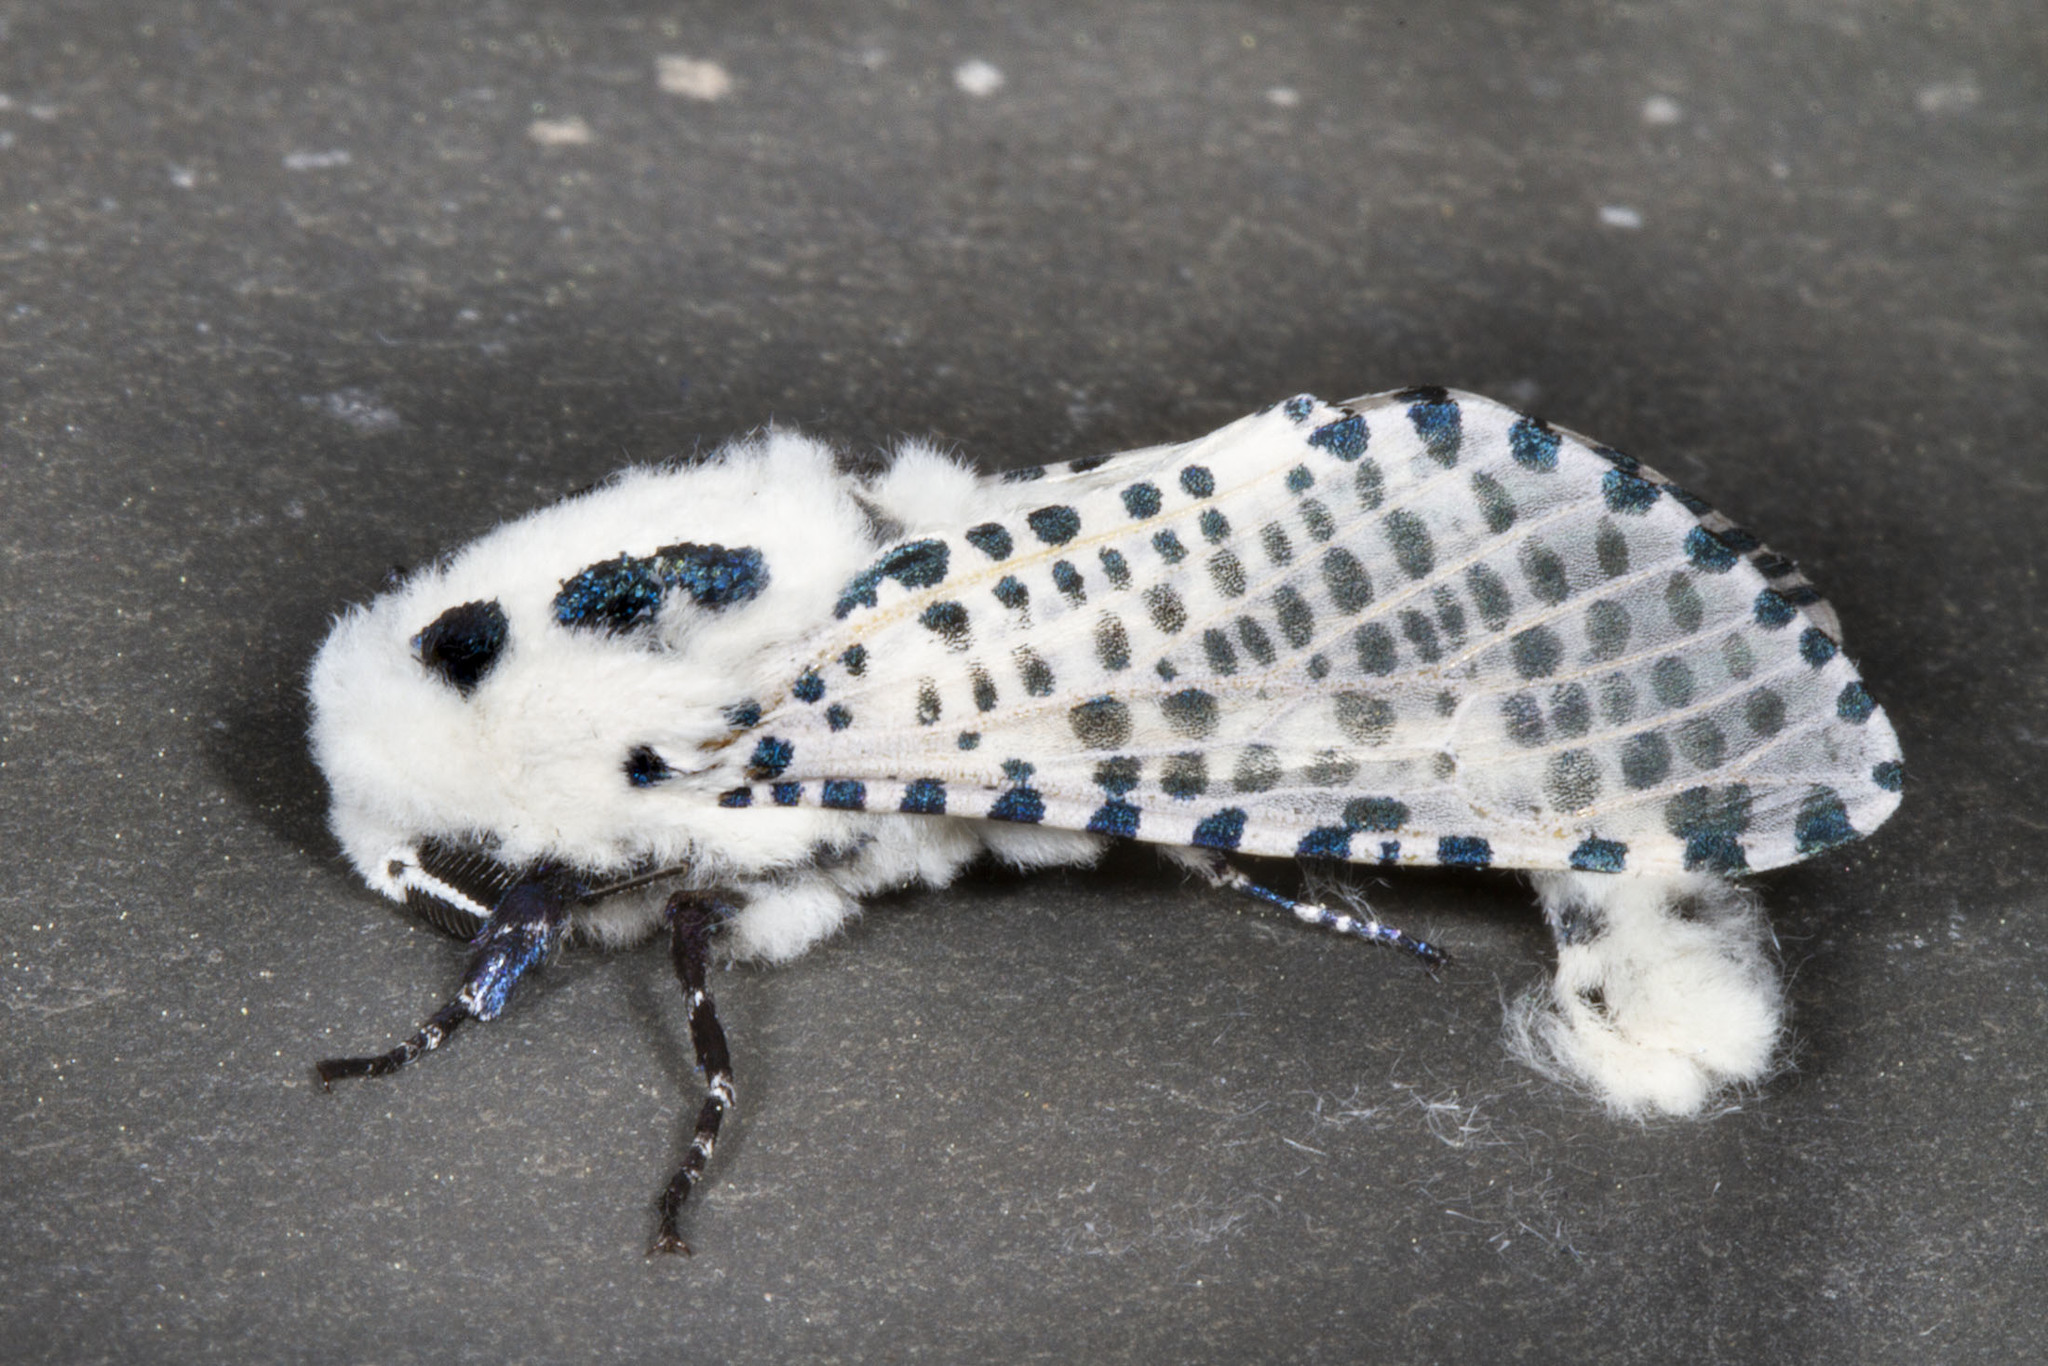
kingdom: Animalia
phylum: Arthropoda
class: Insecta
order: Lepidoptera
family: Cossidae
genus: Zeuzera
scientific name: Zeuzera pyrina
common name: Leopard moth
